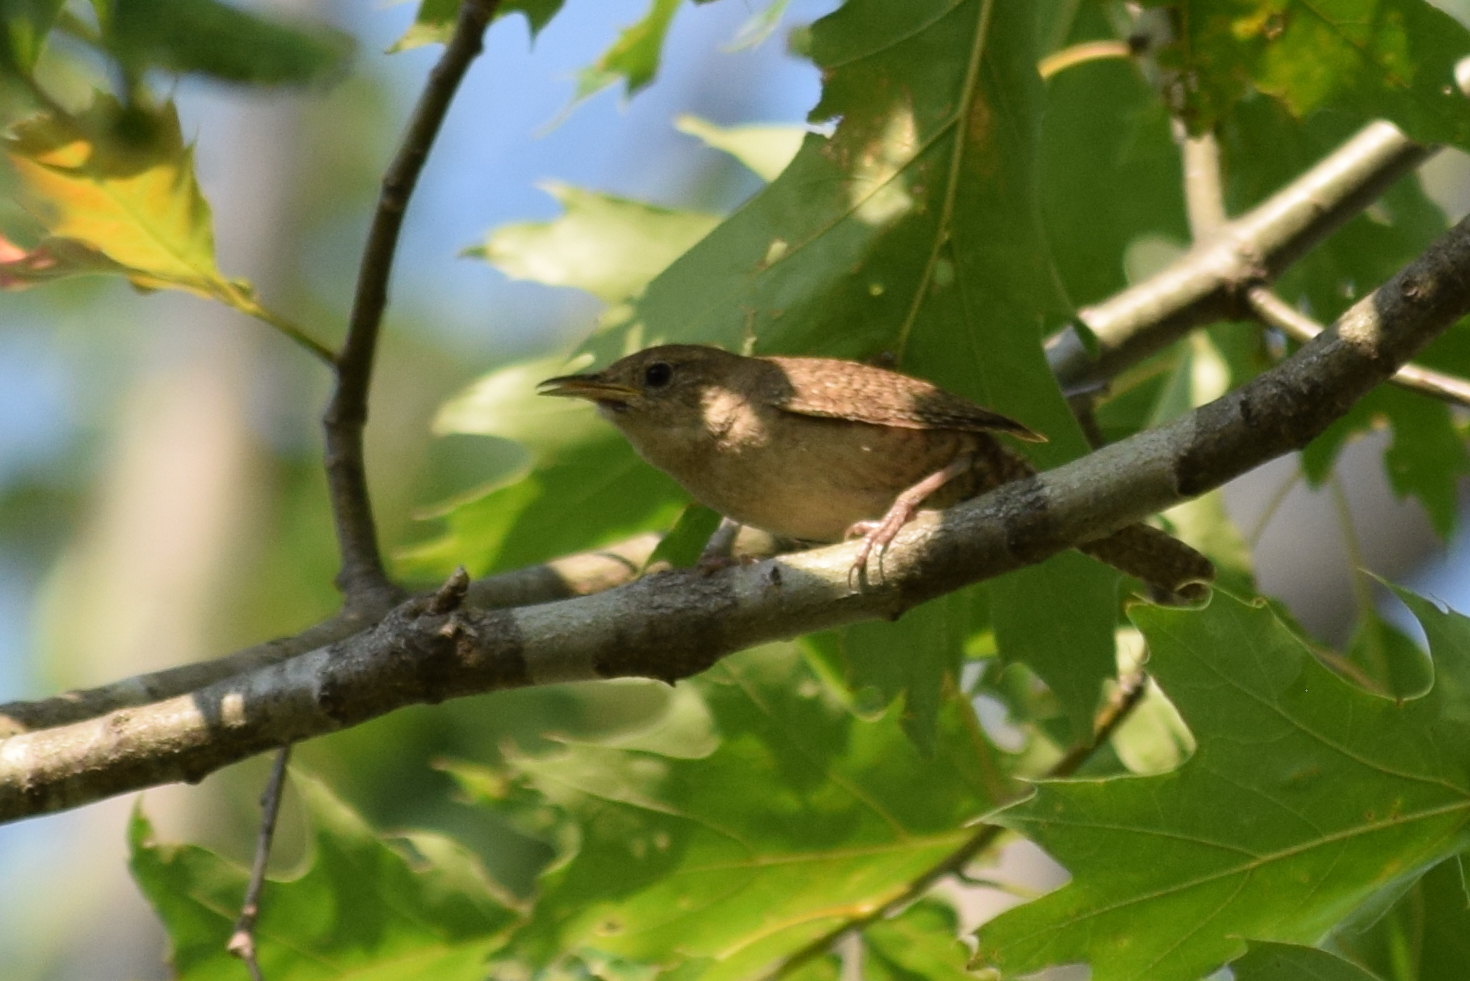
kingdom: Animalia
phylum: Chordata
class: Aves
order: Passeriformes
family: Troglodytidae
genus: Troglodytes
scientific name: Troglodytes aedon
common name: House wren
